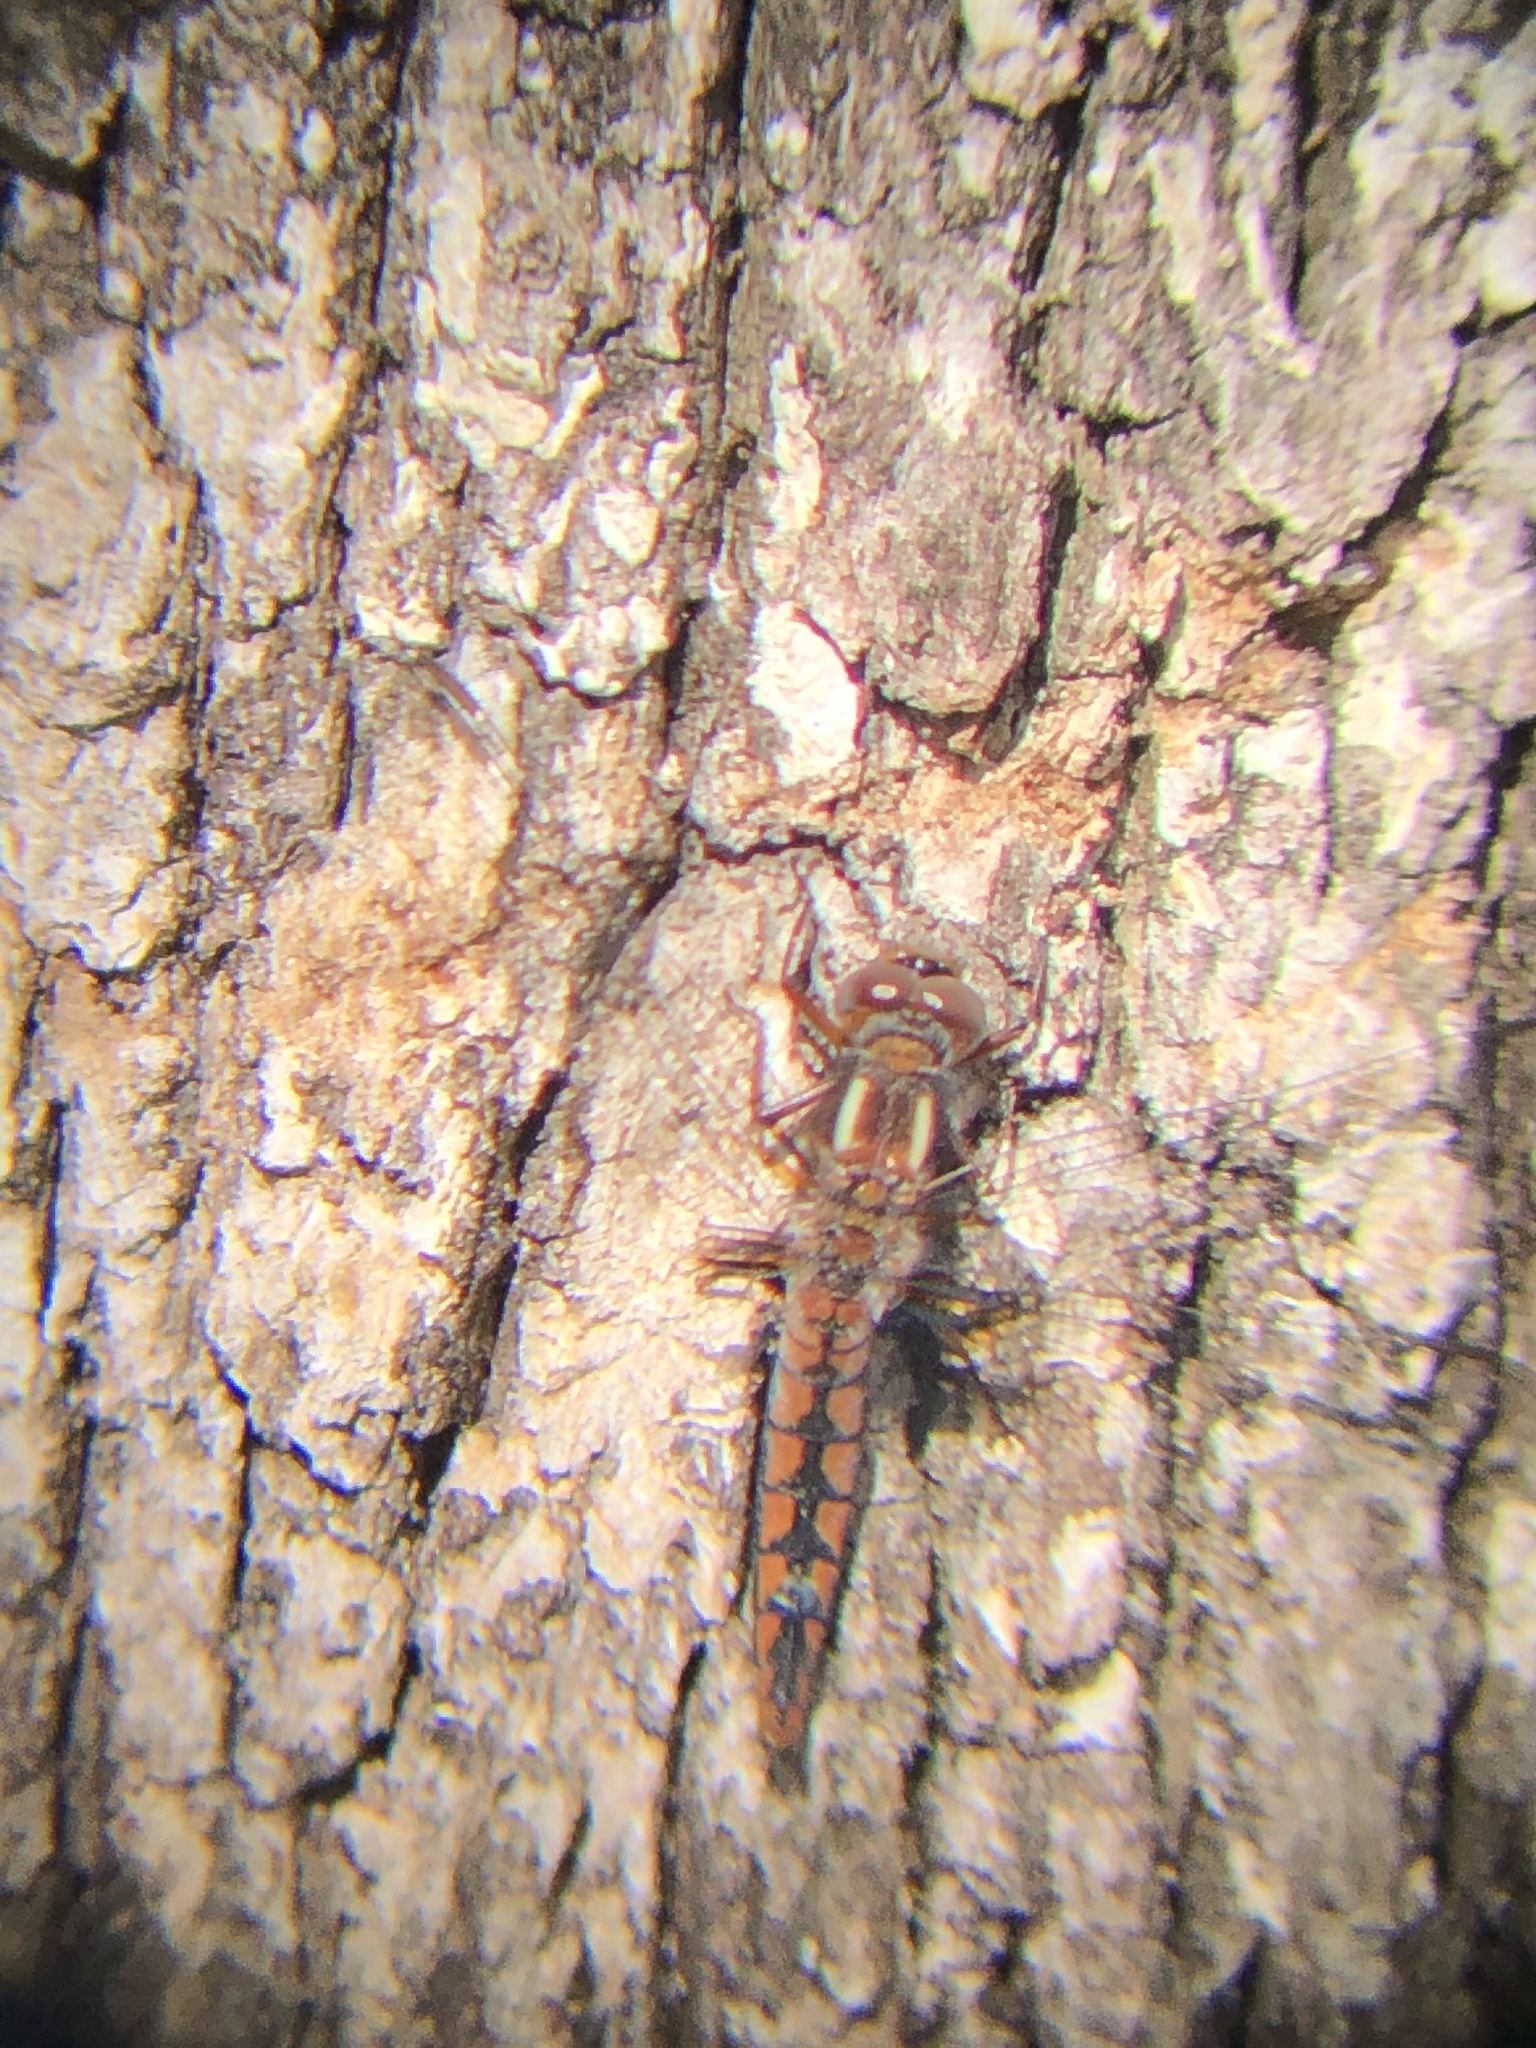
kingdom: Animalia
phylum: Arthropoda
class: Insecta
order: Odonata
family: Libellulidae
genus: Ladona
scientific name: Ladona deplanata
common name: Blue corporal
